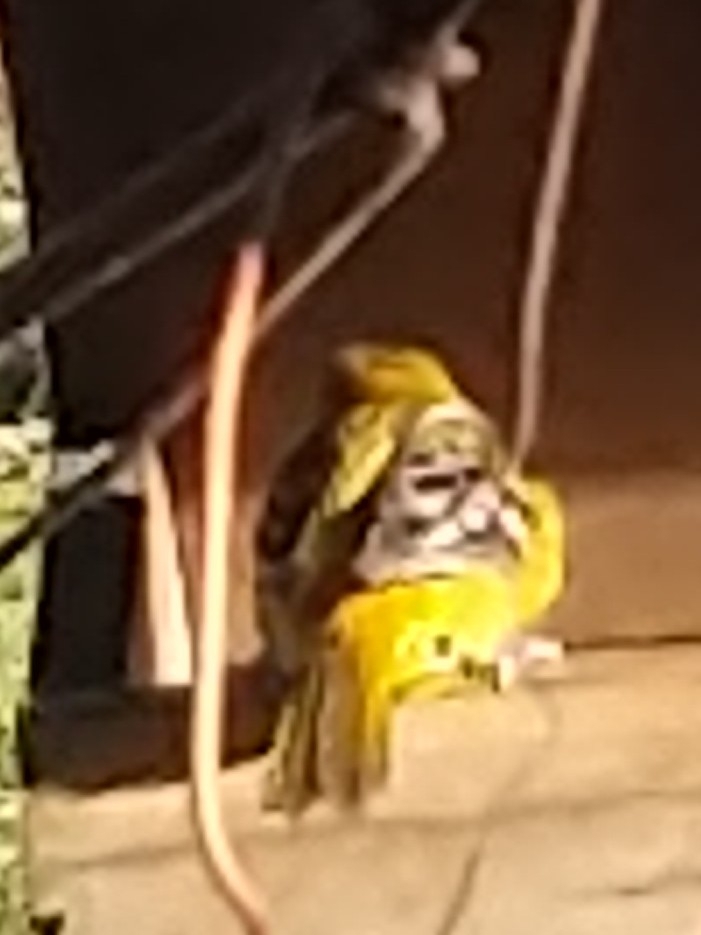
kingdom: Animalia
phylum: Chordata
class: Aves
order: Passeriformes
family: Icteridae
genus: Icterus
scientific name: Icterus galbula
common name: Baltimore oriole
